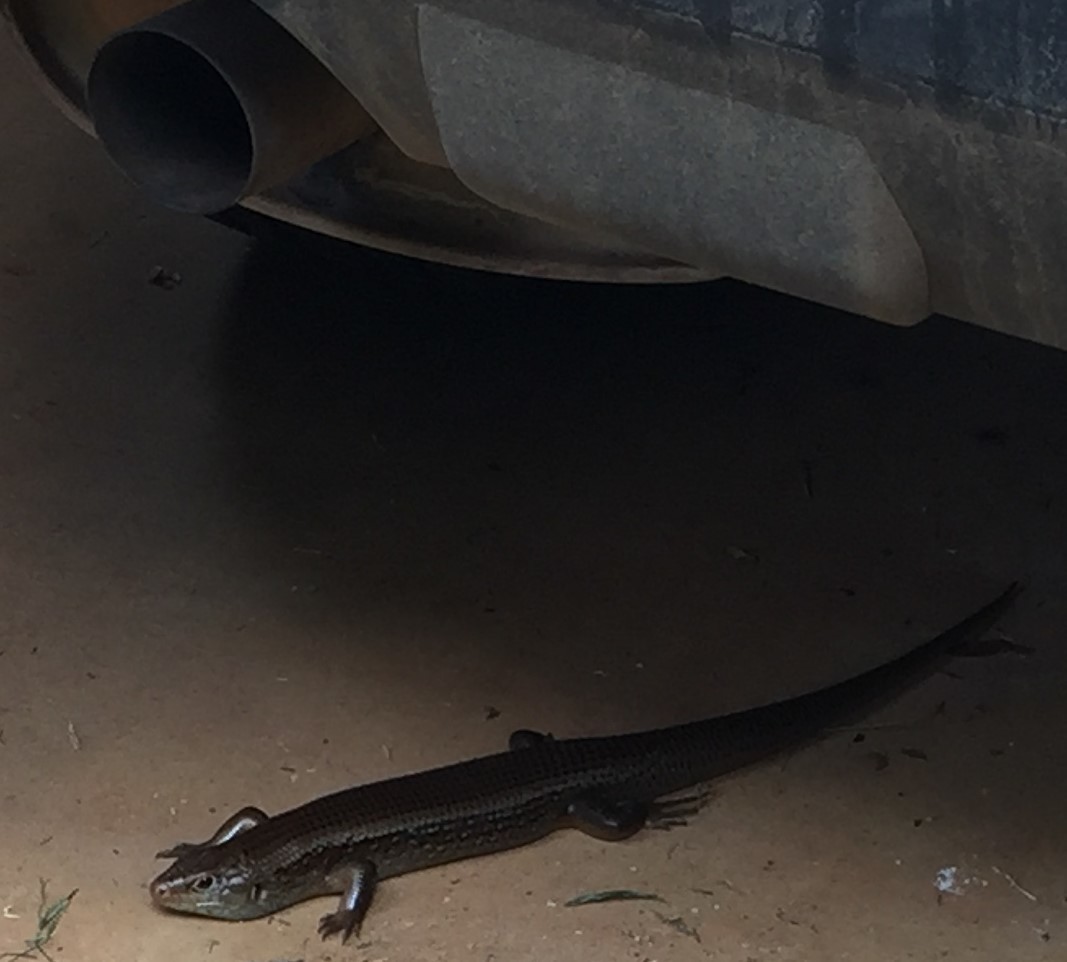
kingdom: Animalia
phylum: Chordata
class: Squamata
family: Scincidae
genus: Bellatorias
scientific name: Bellatorias frerei
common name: Major skink
